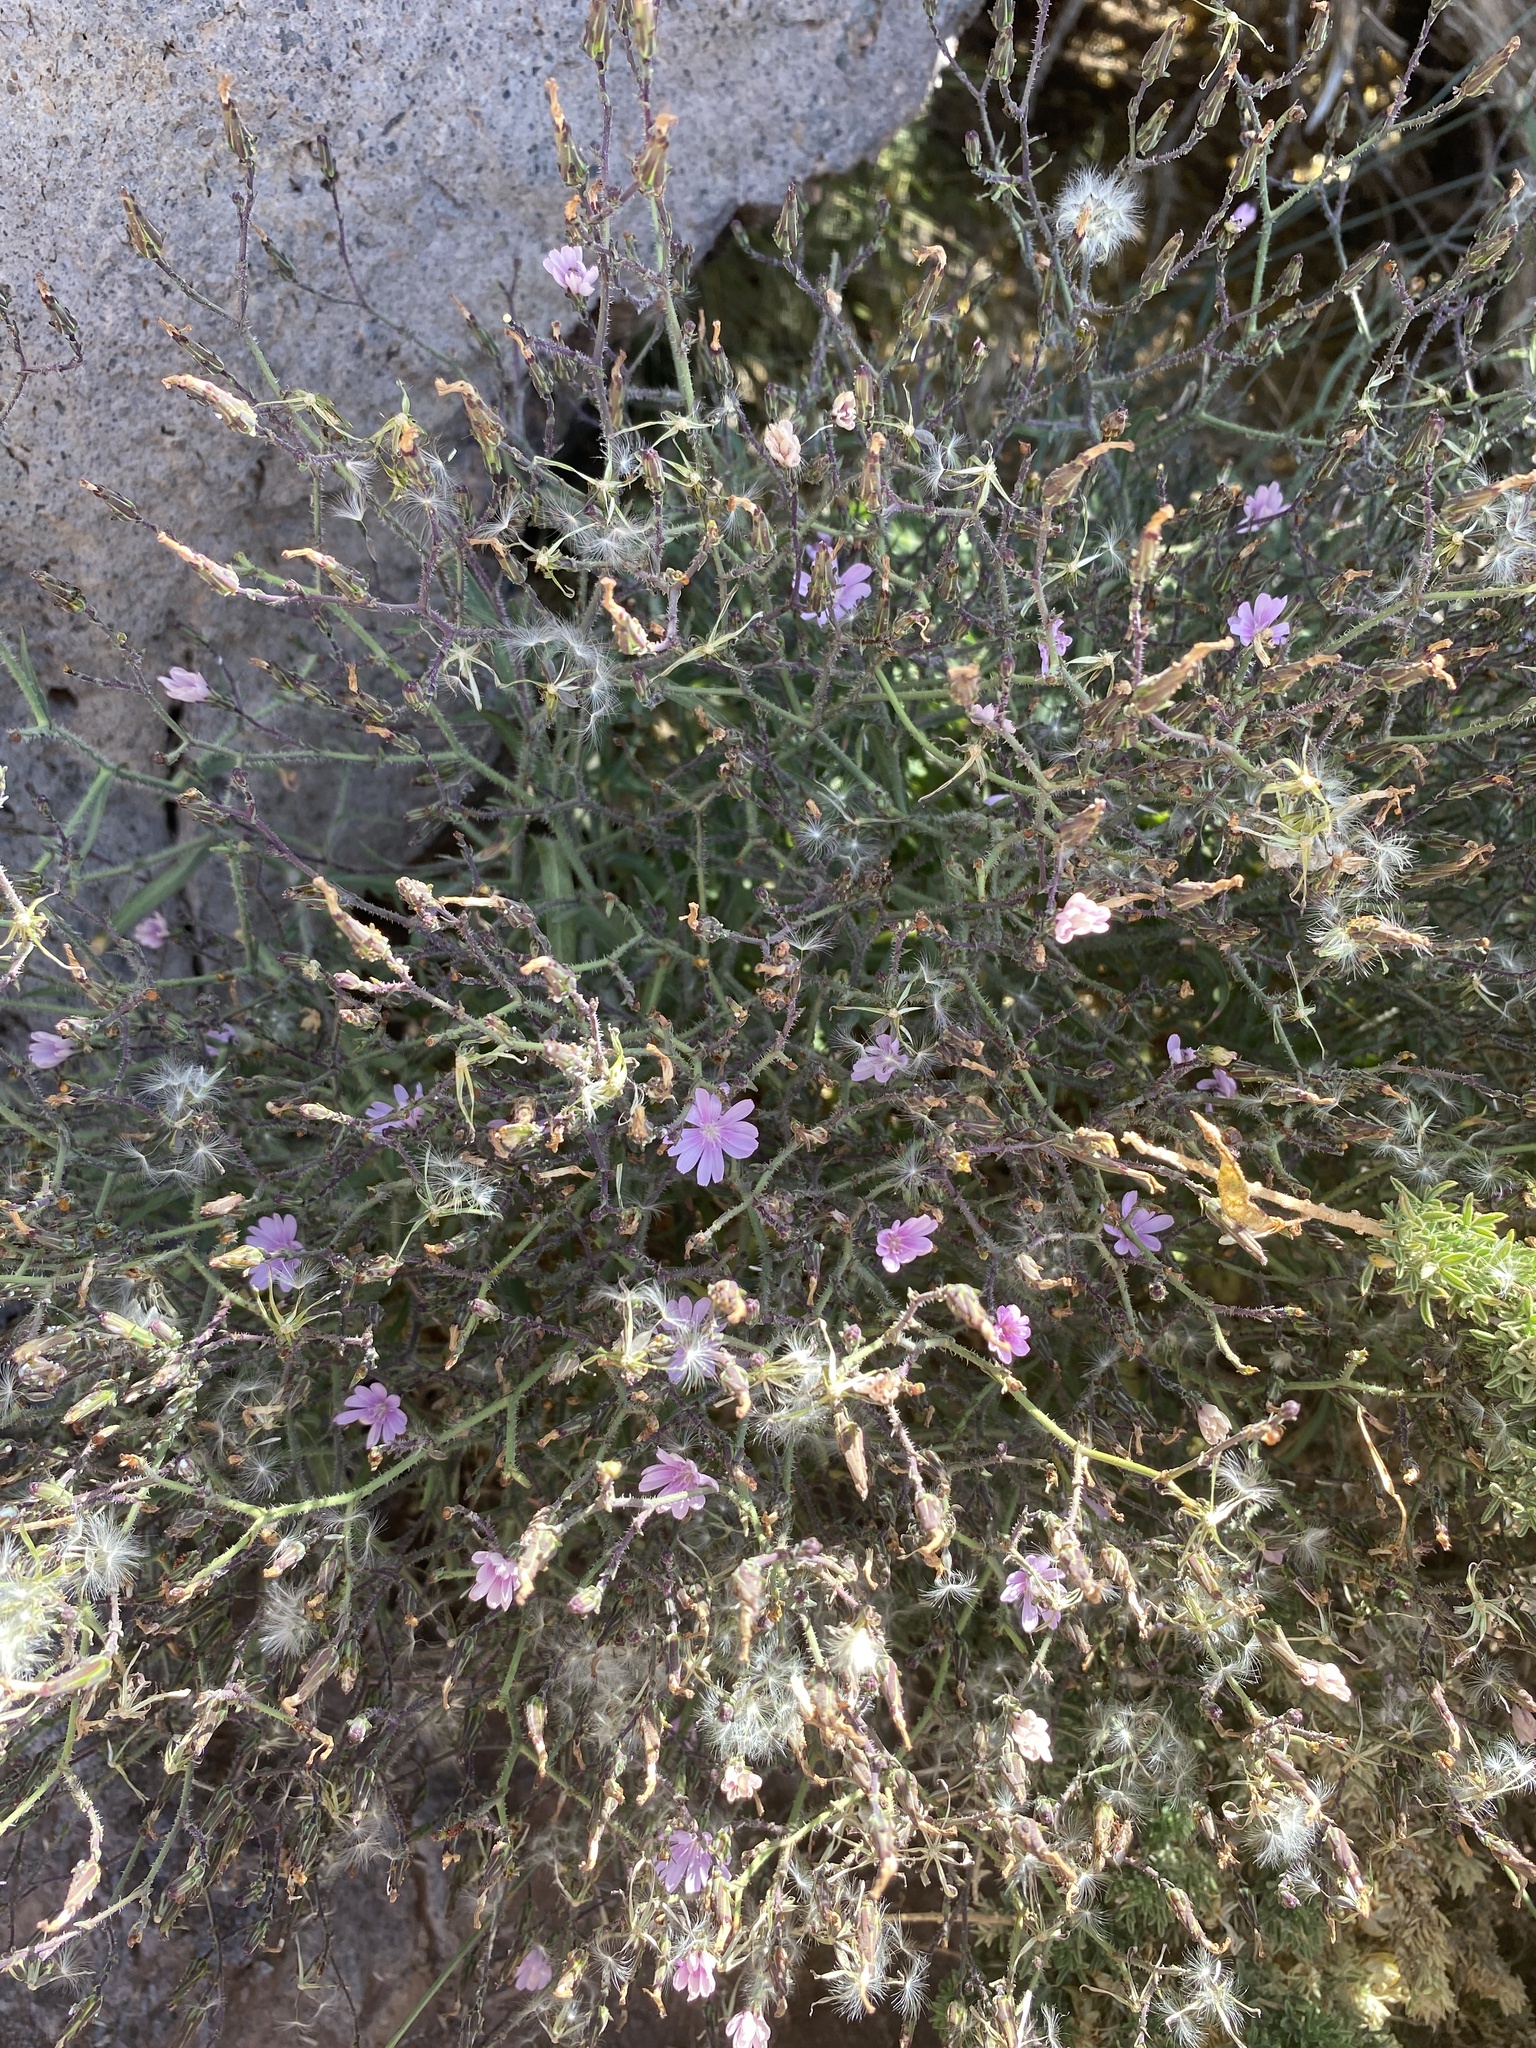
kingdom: Plantae
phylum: Tracheophyta
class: Magnoliopsida
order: Asterales
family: Asteraceae
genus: Lactuca
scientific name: Lactuca palmensis
